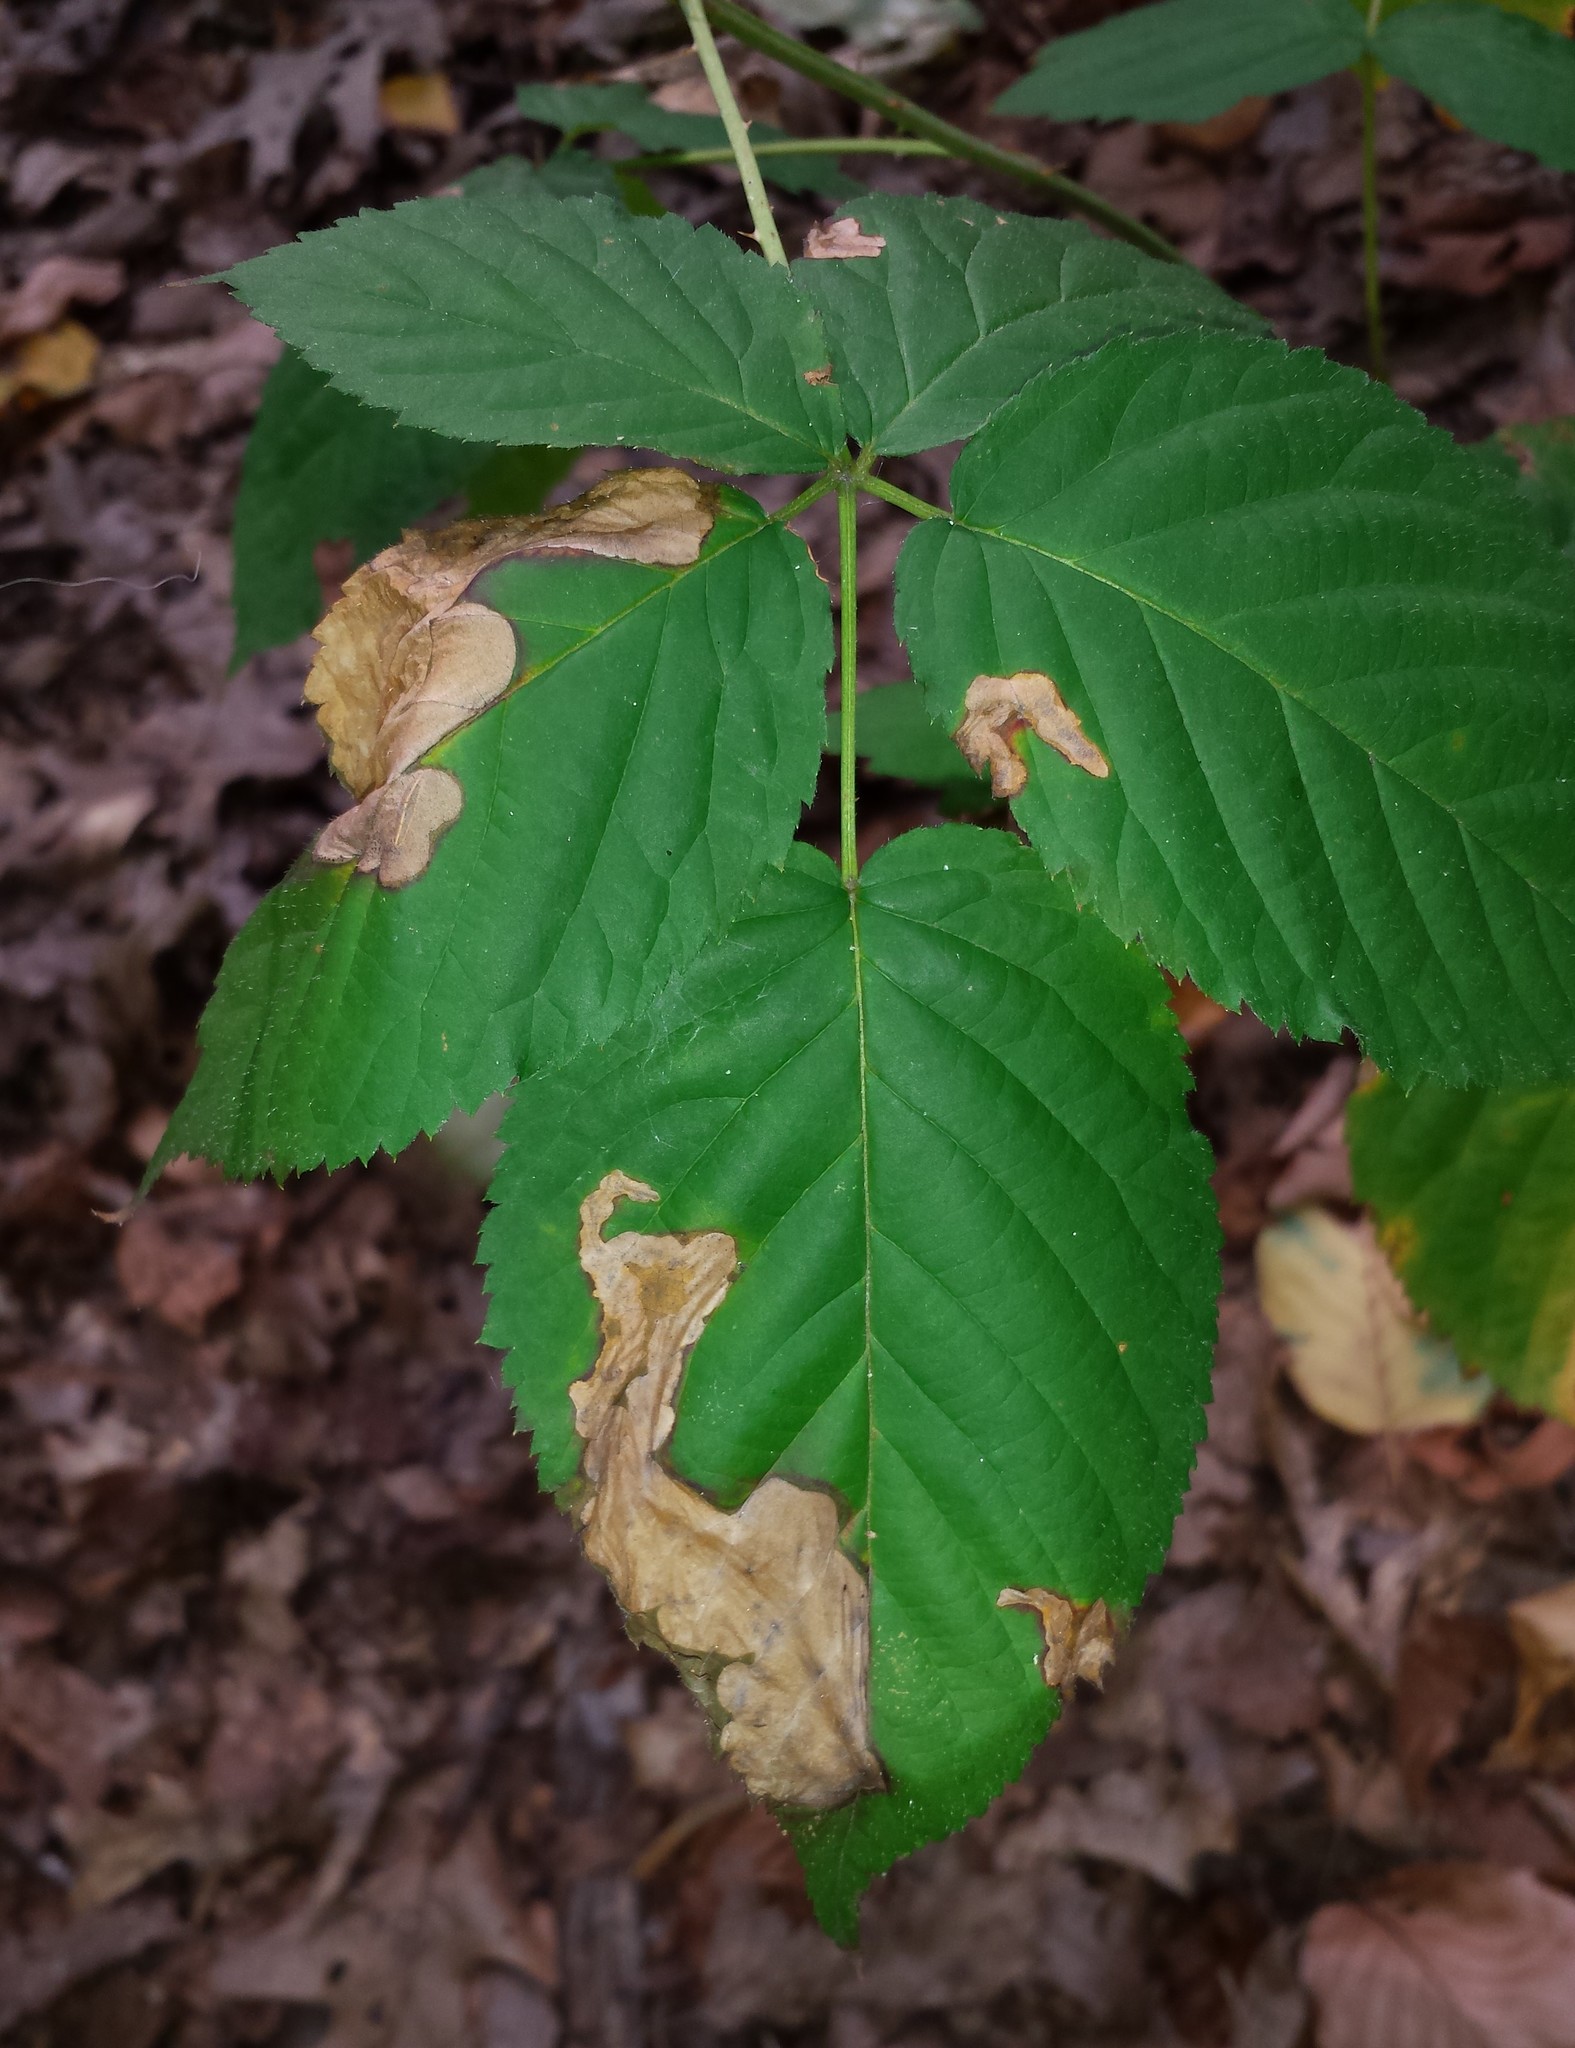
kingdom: Animalia
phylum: Arthropoda
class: Insecta
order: Hymenoptera
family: Tenthredinidae
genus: Metallus
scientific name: Metallus rohweri
